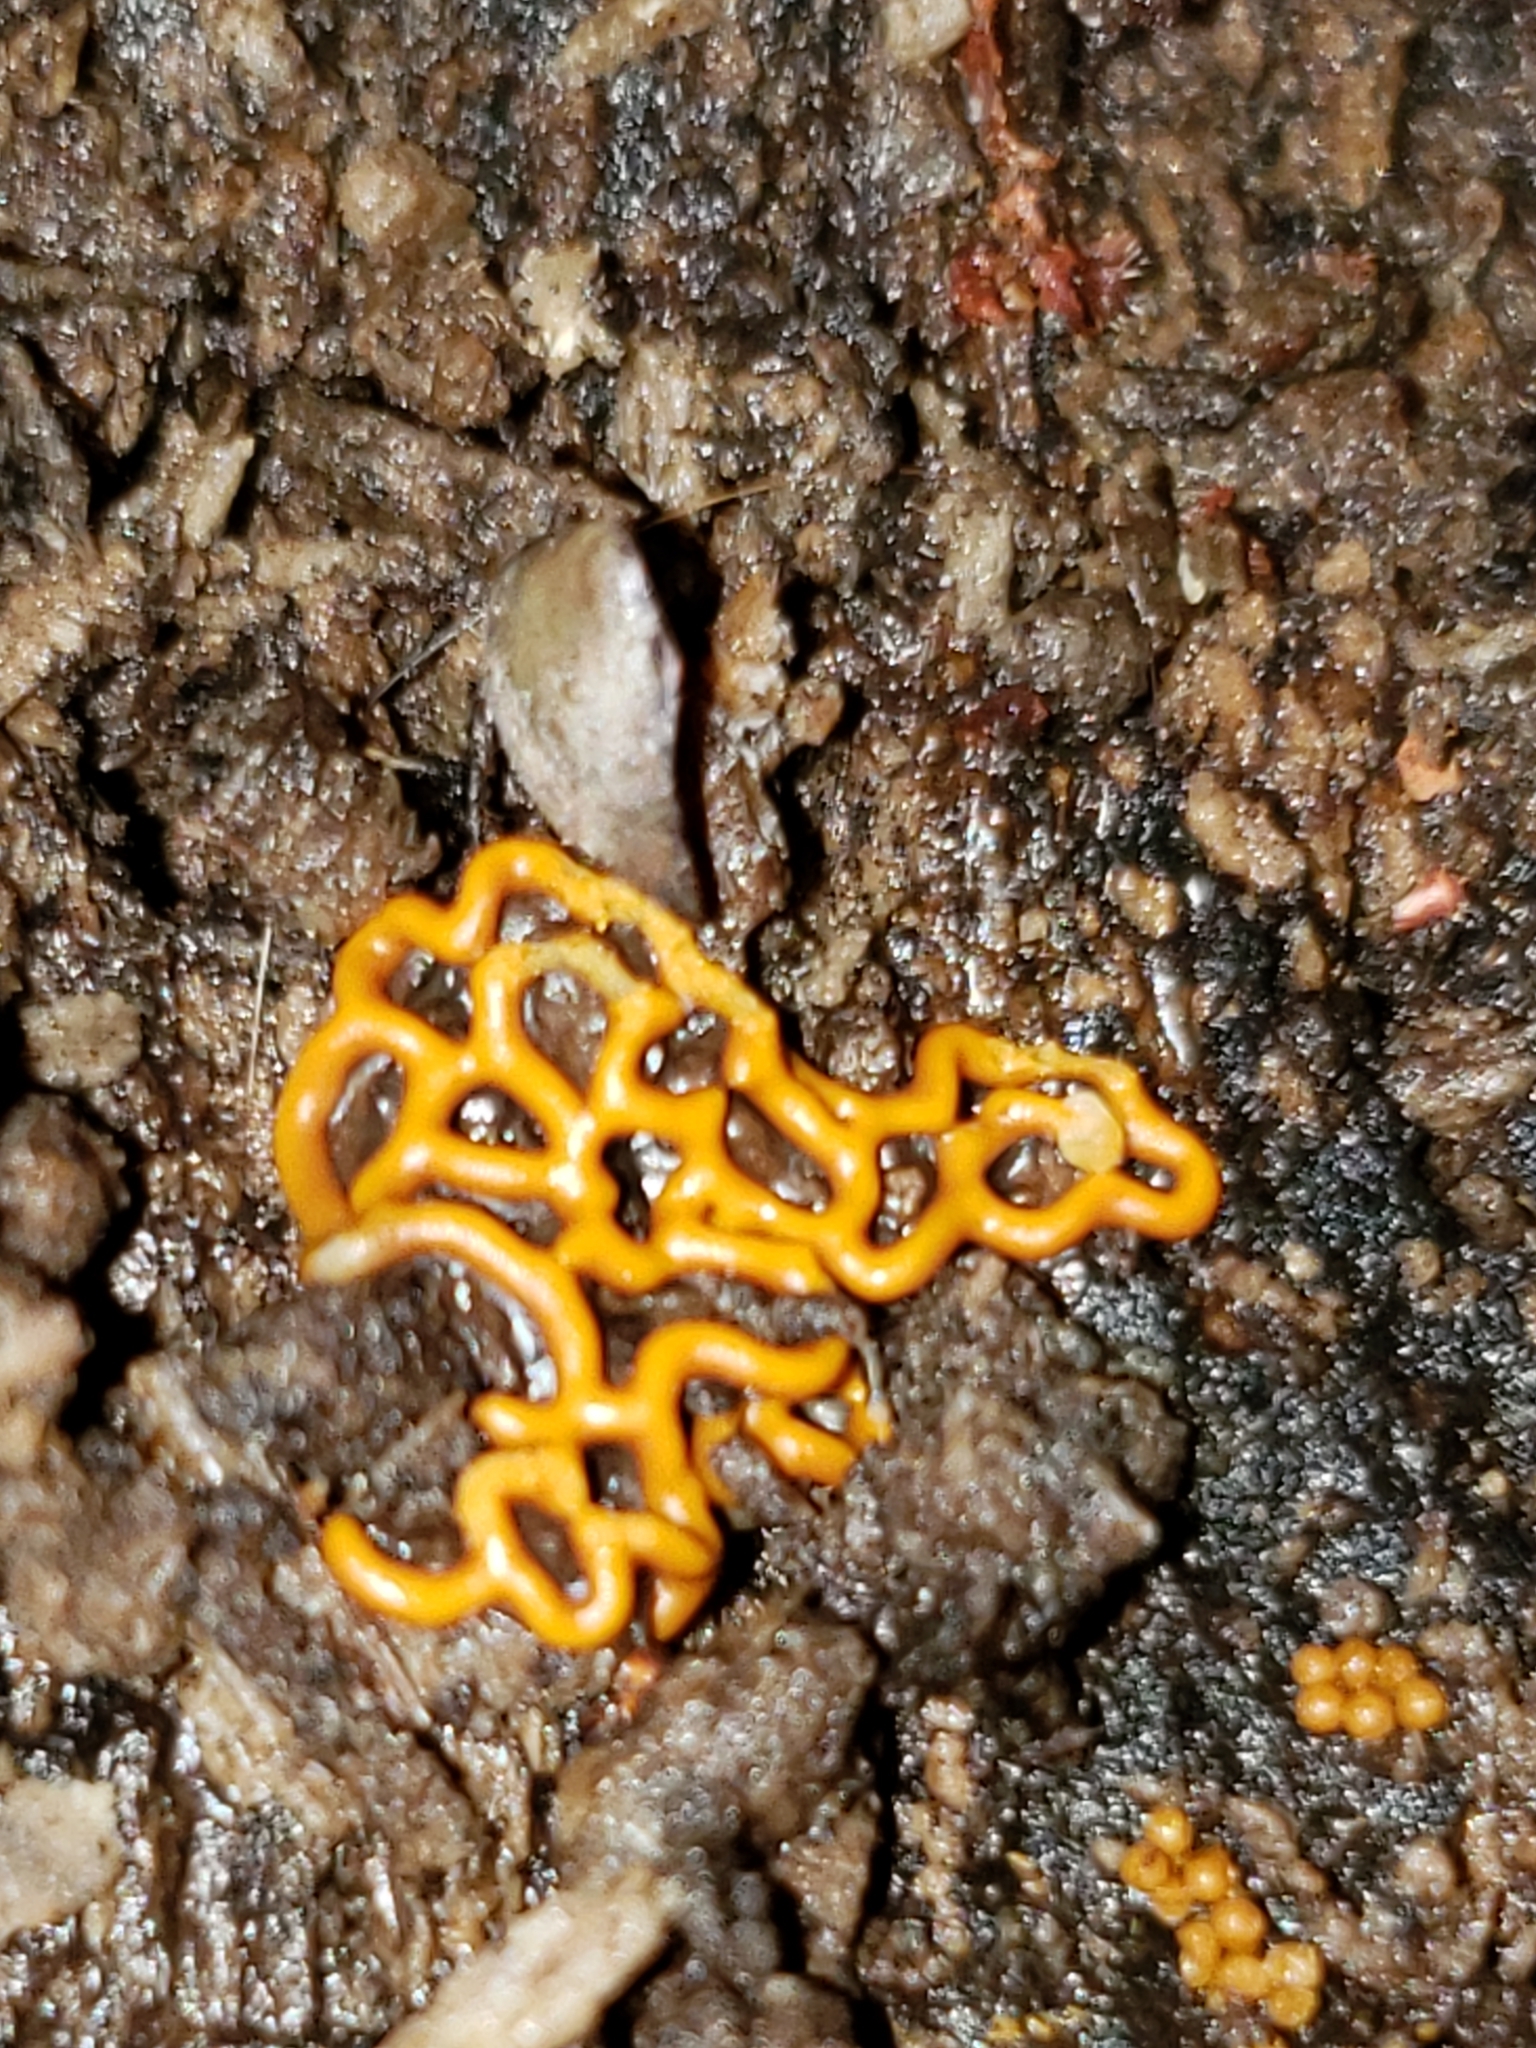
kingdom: Protozoa
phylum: Mycetozoa
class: Myxomycetes
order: Trichiales
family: Arcyriaceae
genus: Hemitrichia
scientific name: Hemitrichia serpula
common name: Pretzel slime mold
